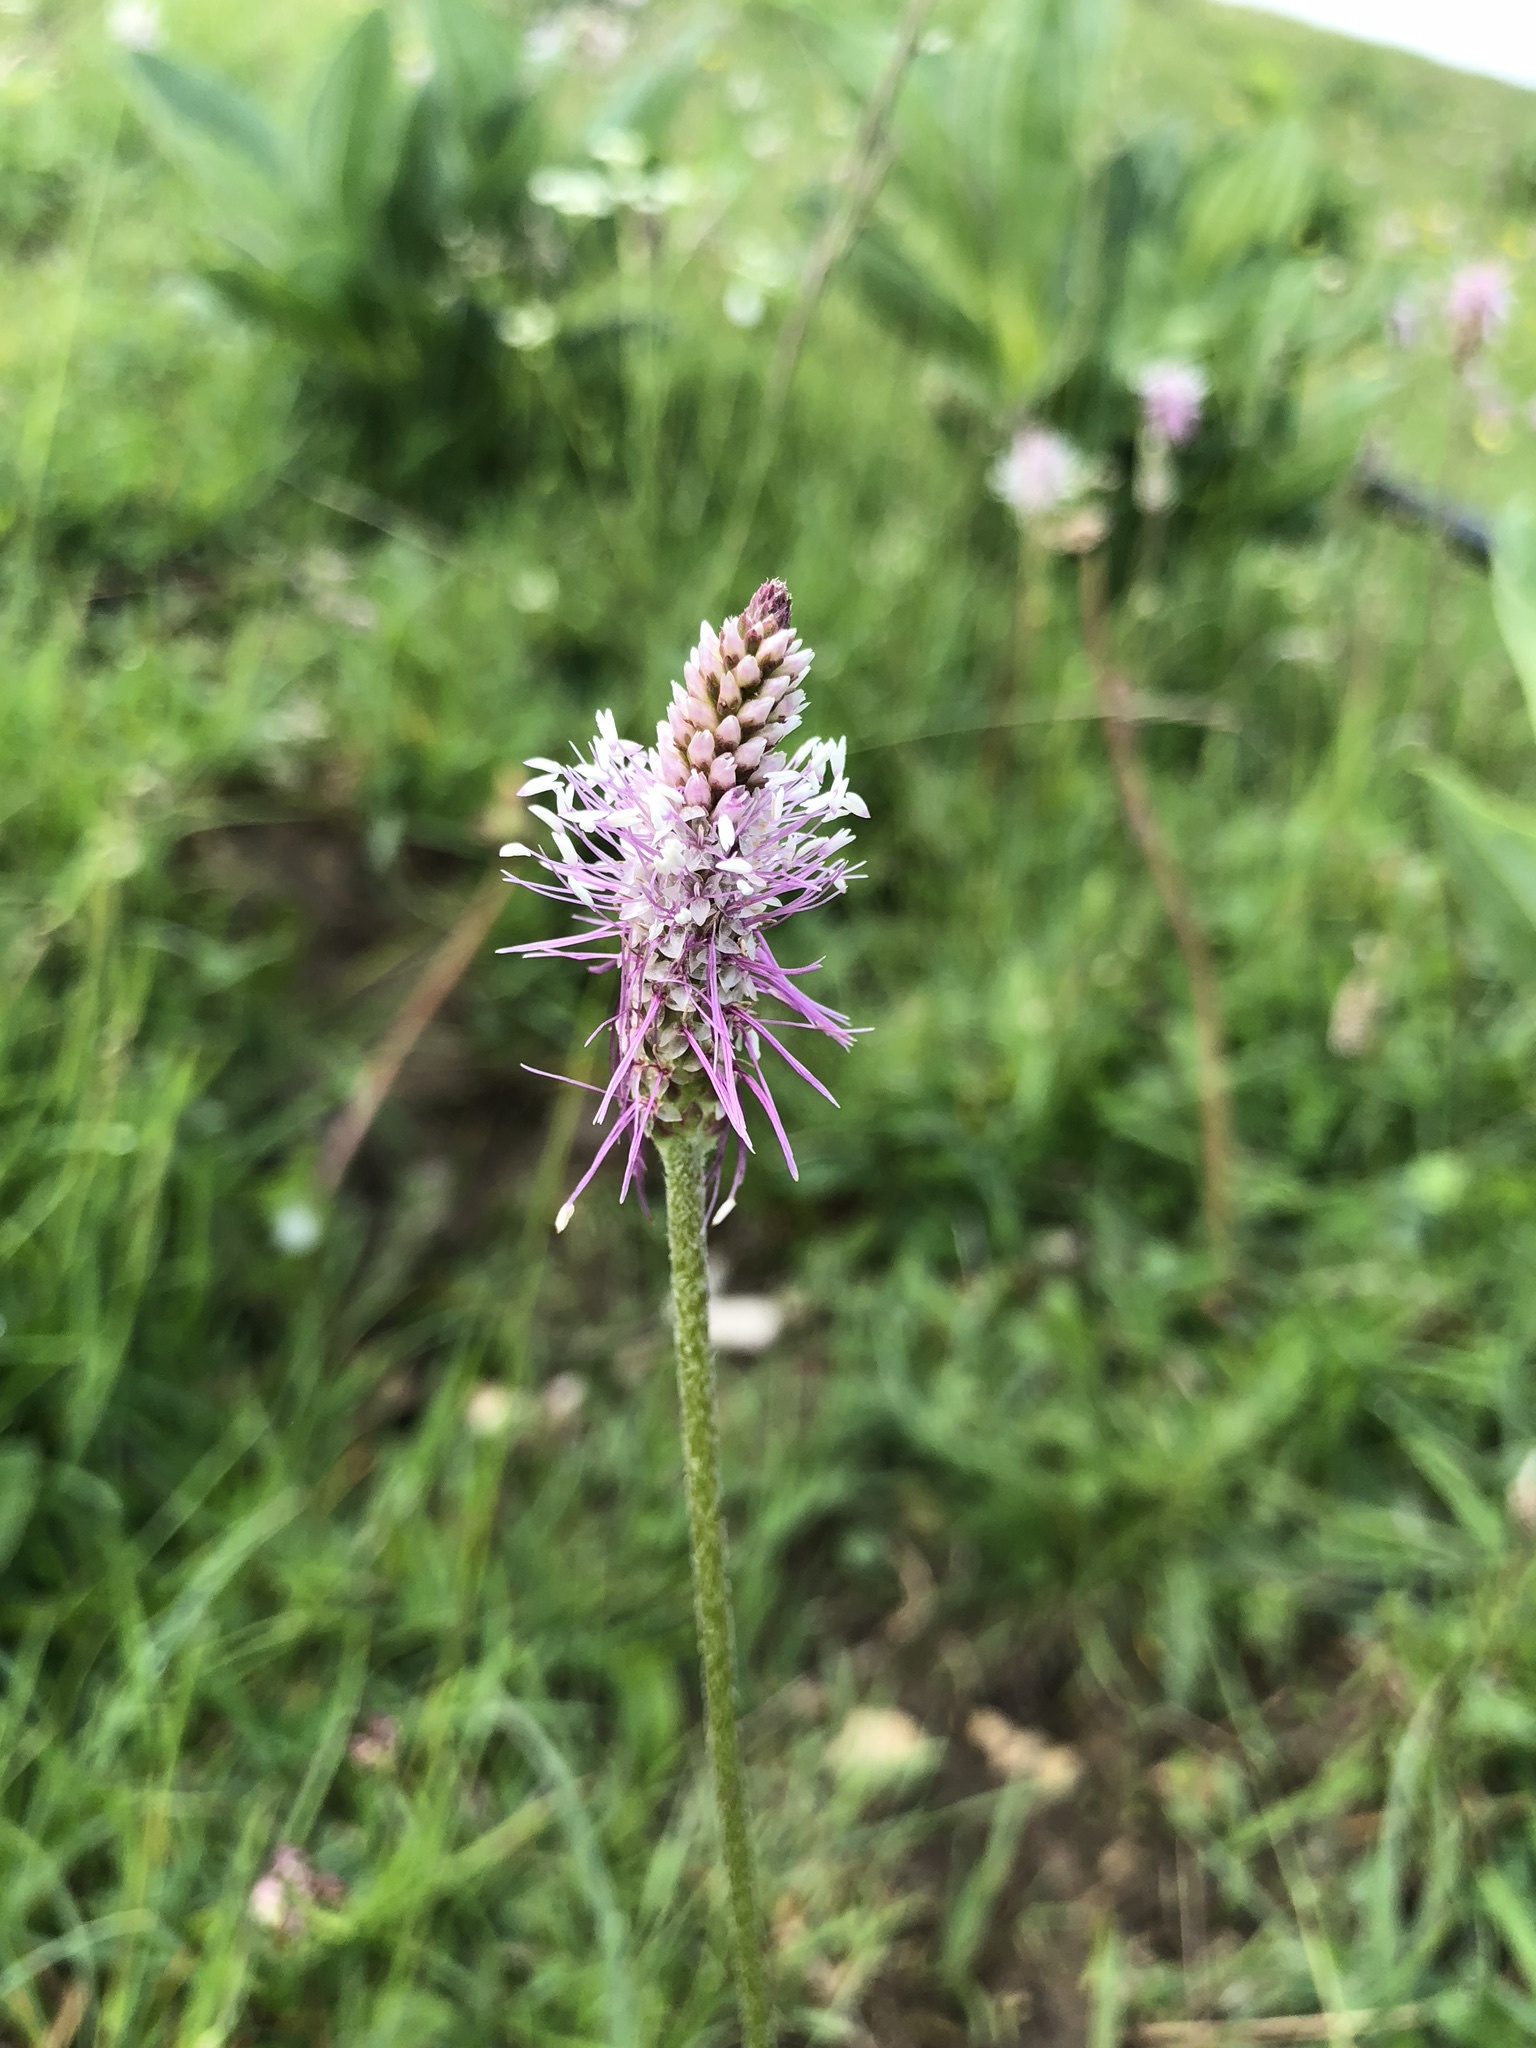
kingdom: Plantae
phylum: Tracheophyta
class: Magnoliopsida
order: Lamiales
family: Plantaginaceae
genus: Plantago
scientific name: Plantago media
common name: Hoary plantain
